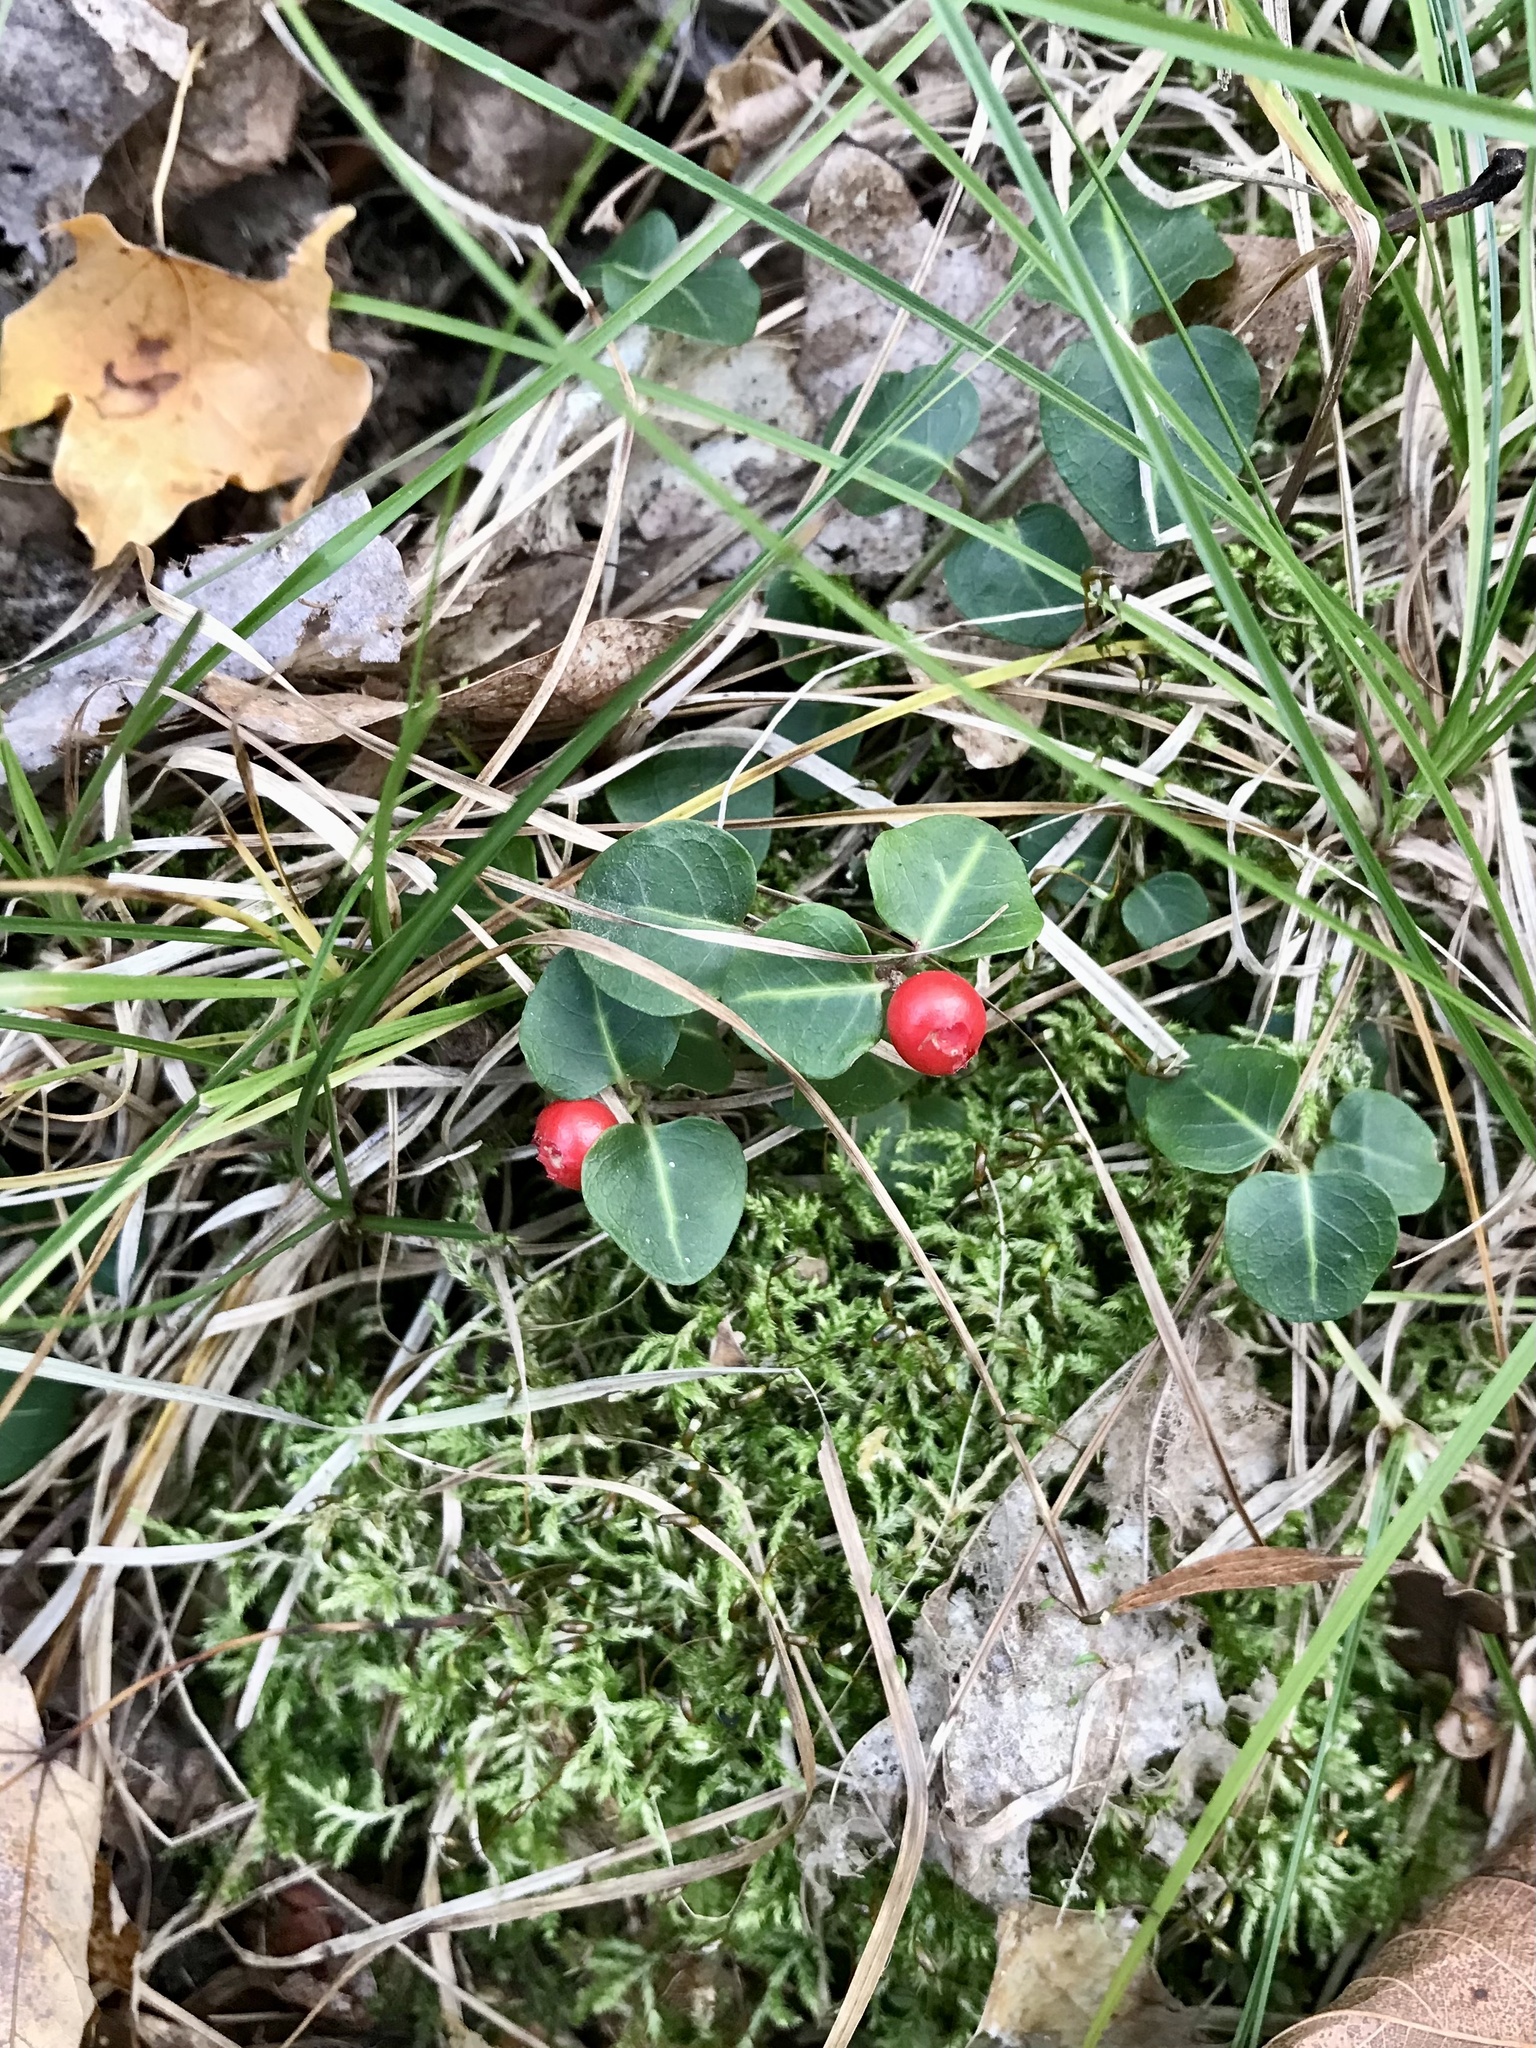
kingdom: Plantae
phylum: Tracheophyta
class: Magnoliopsida
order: Gentianales
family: Rubiaceae
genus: Mitchella
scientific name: Mitchella repens
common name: Partridge-berry
